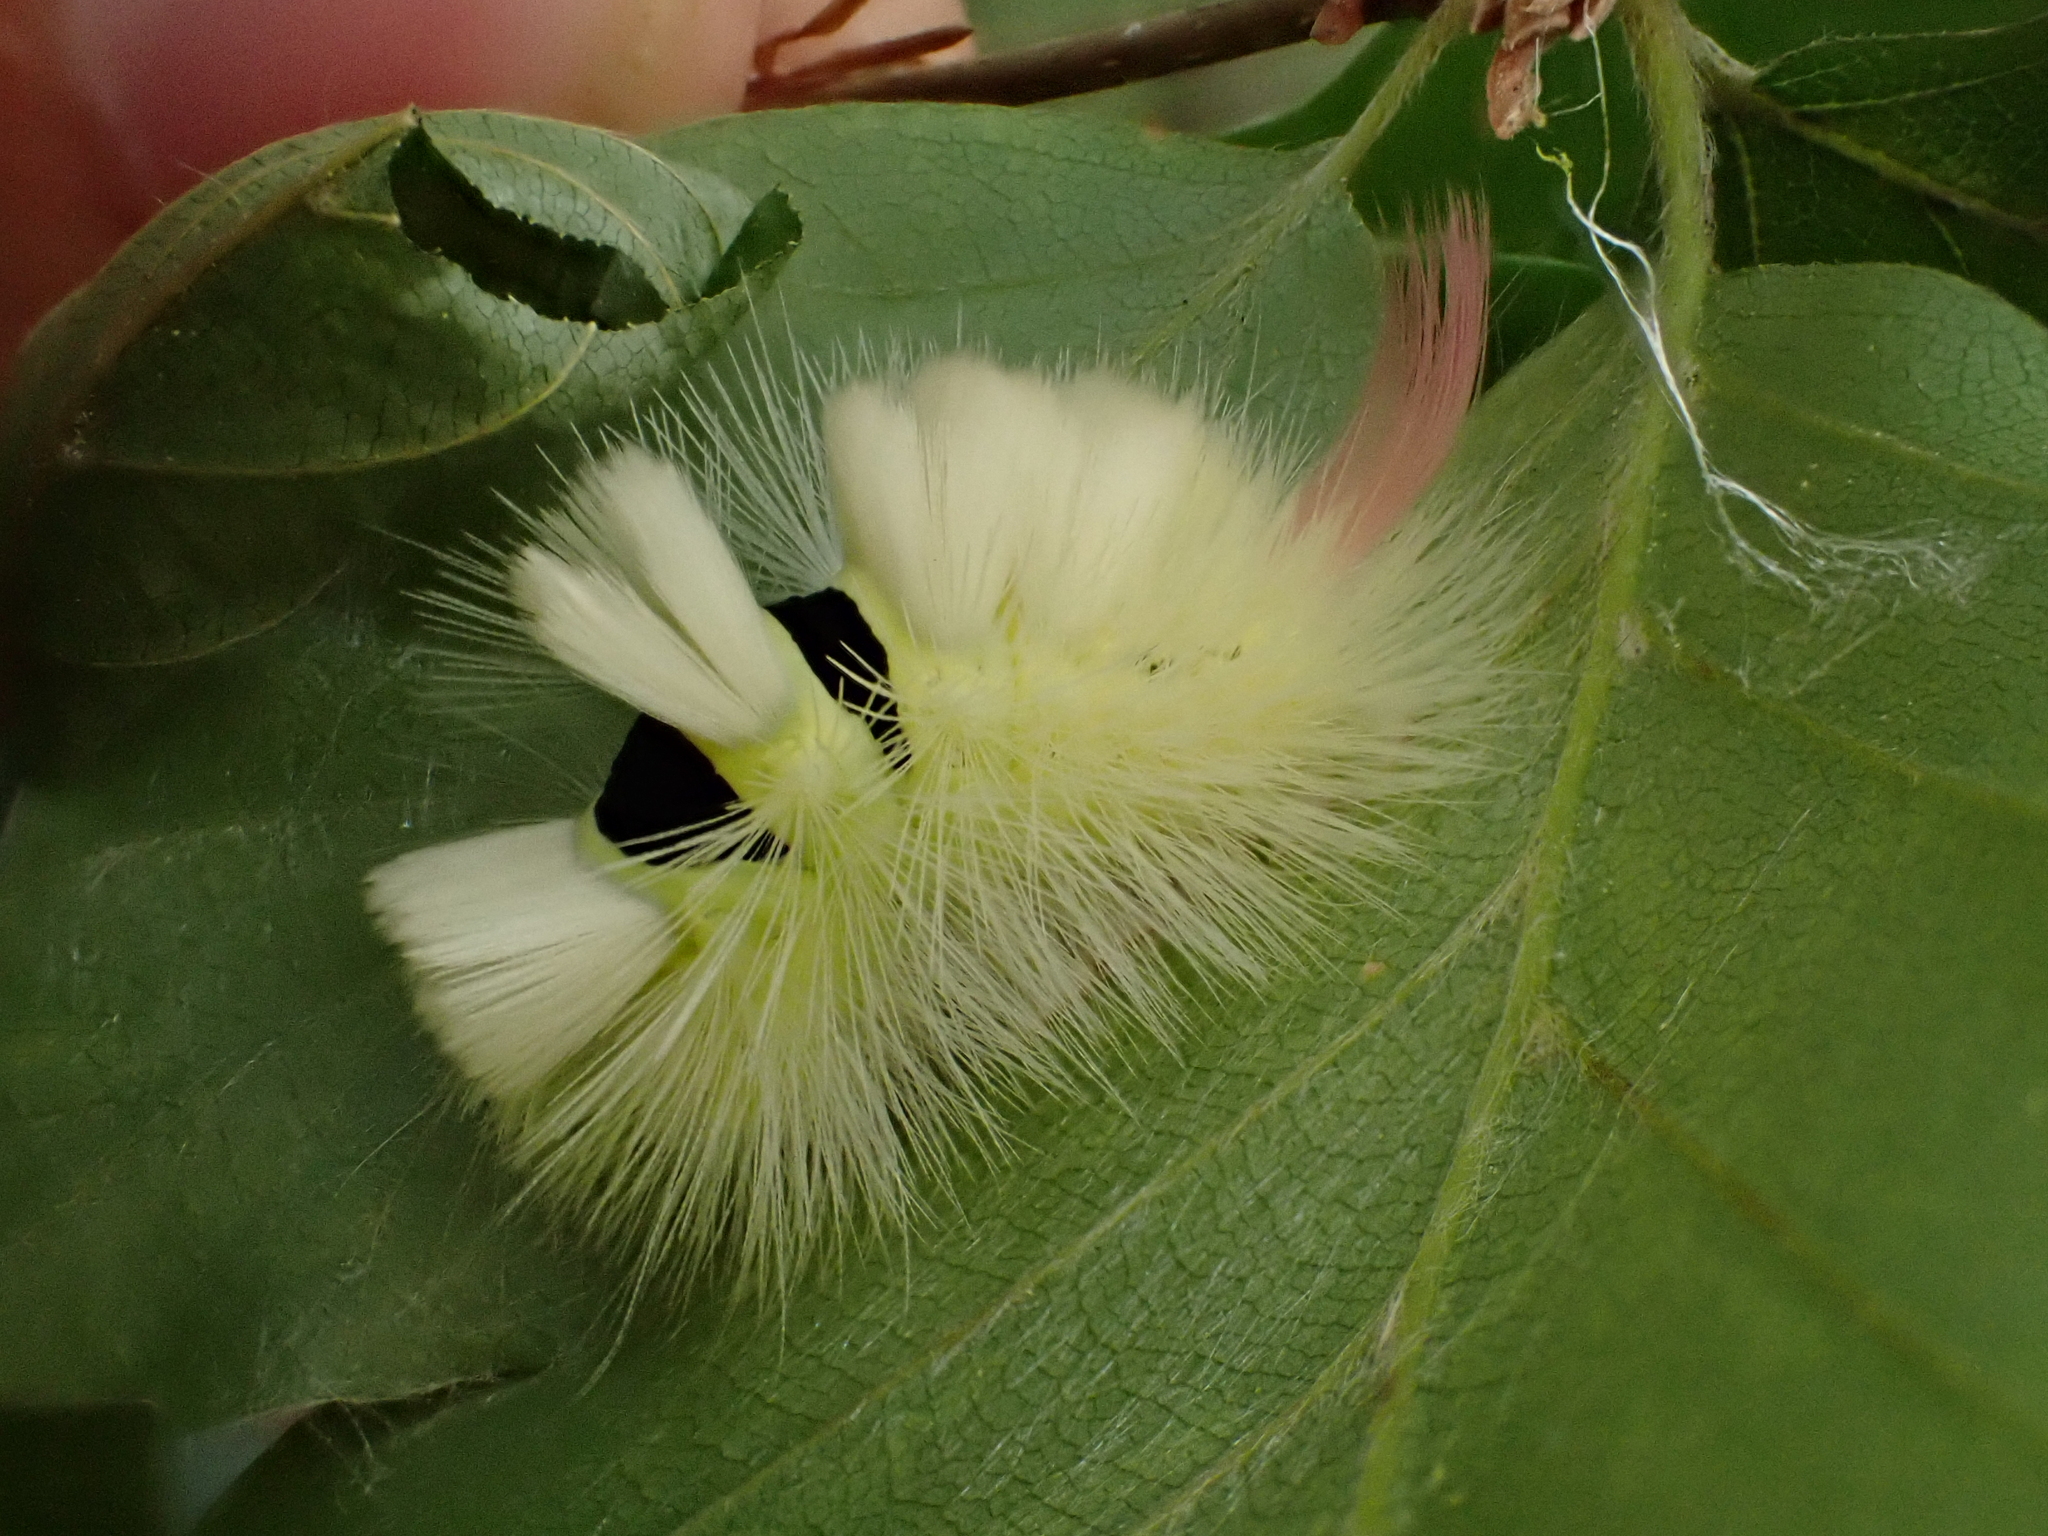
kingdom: Animalia
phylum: Arthropoda
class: Insecta
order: Lepidoptera
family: Erebidae
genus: Calliteara
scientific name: Calliteara pudibunda
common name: Pale tussock
